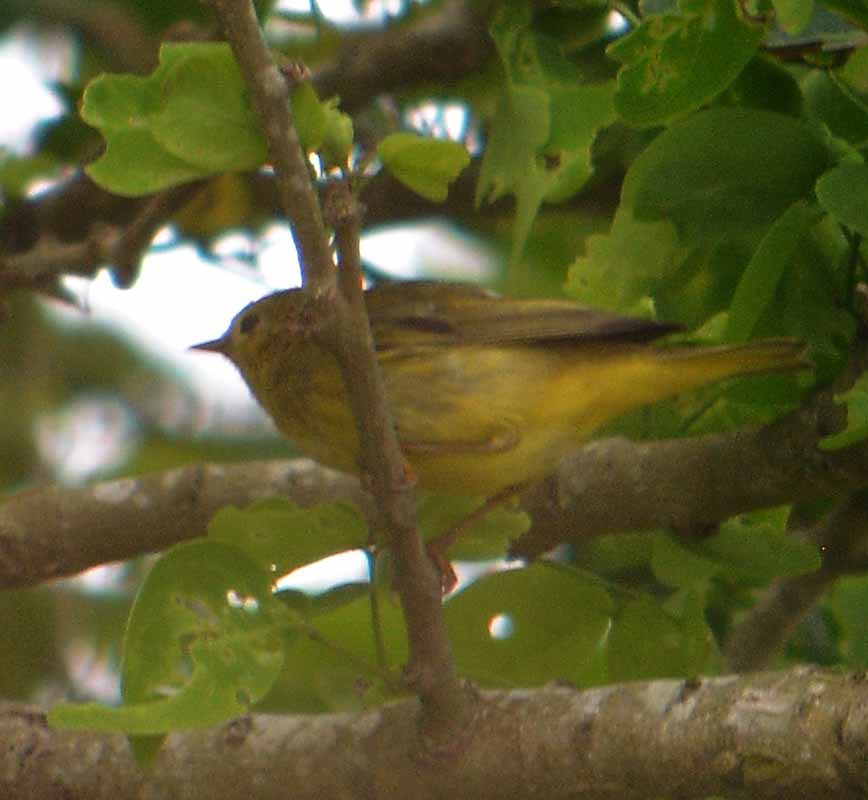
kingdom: Animalia
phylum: Chordata
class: Aves
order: Passeriformes
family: Parulidae
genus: Setophaga
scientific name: Setophaga petechia
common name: Yellow warbler
